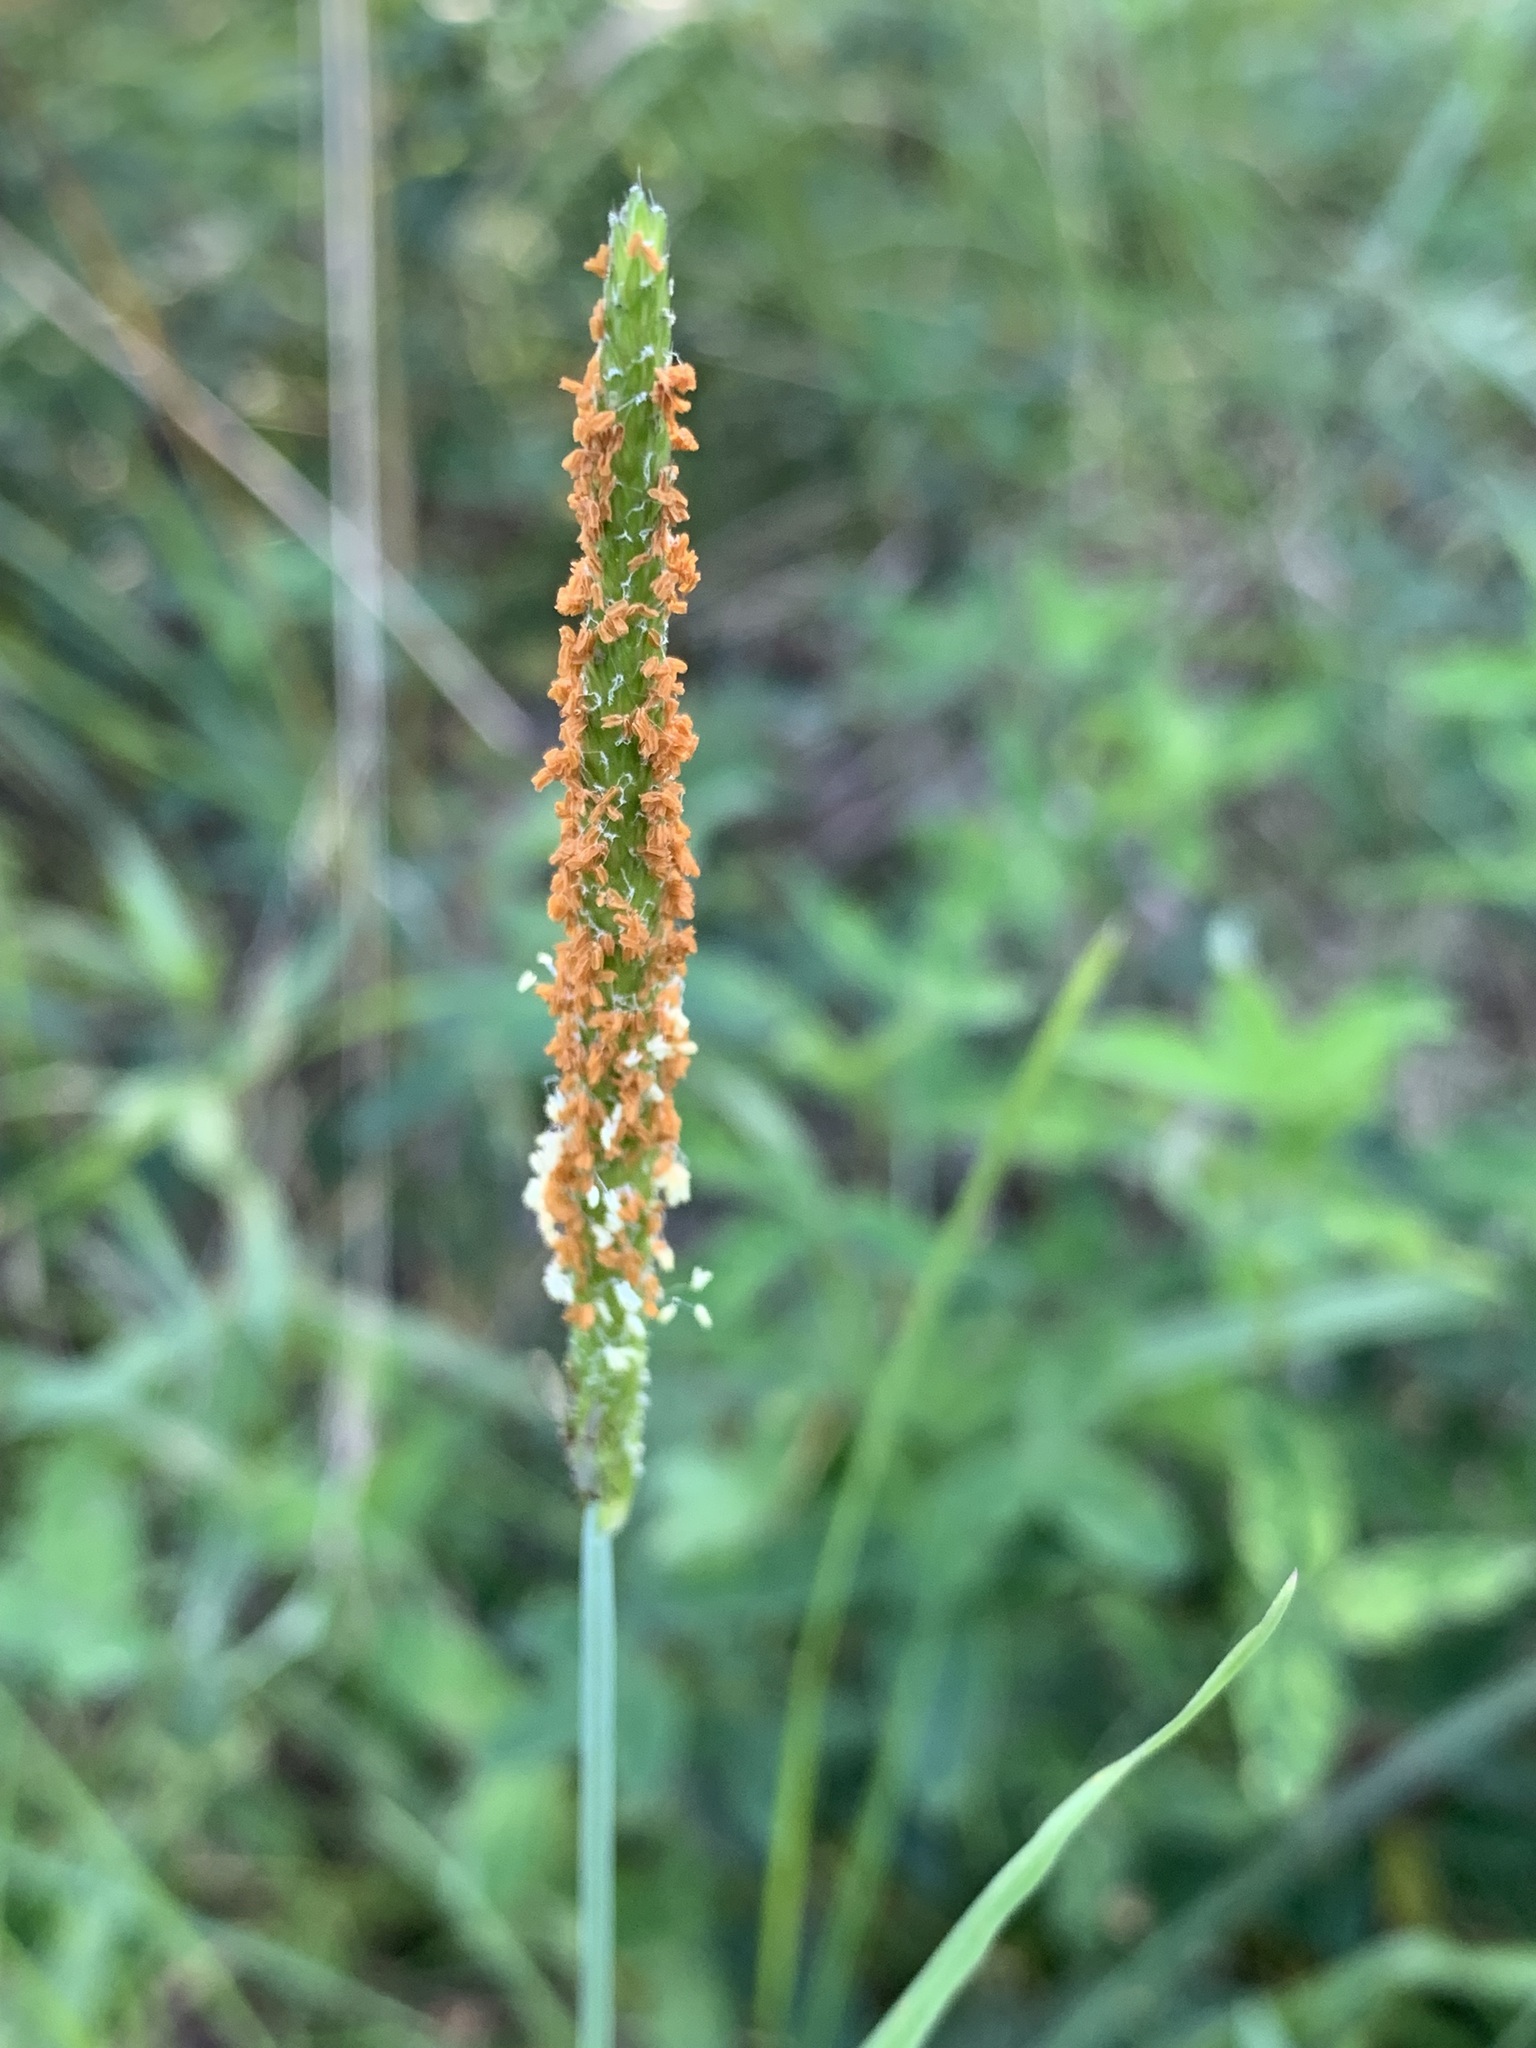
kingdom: Plantae
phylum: Tracheophyta
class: Liliopsida
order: Poales
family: Poaceae
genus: Alopecurus
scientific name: Alopecurus aequalis
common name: Orange foxtail
